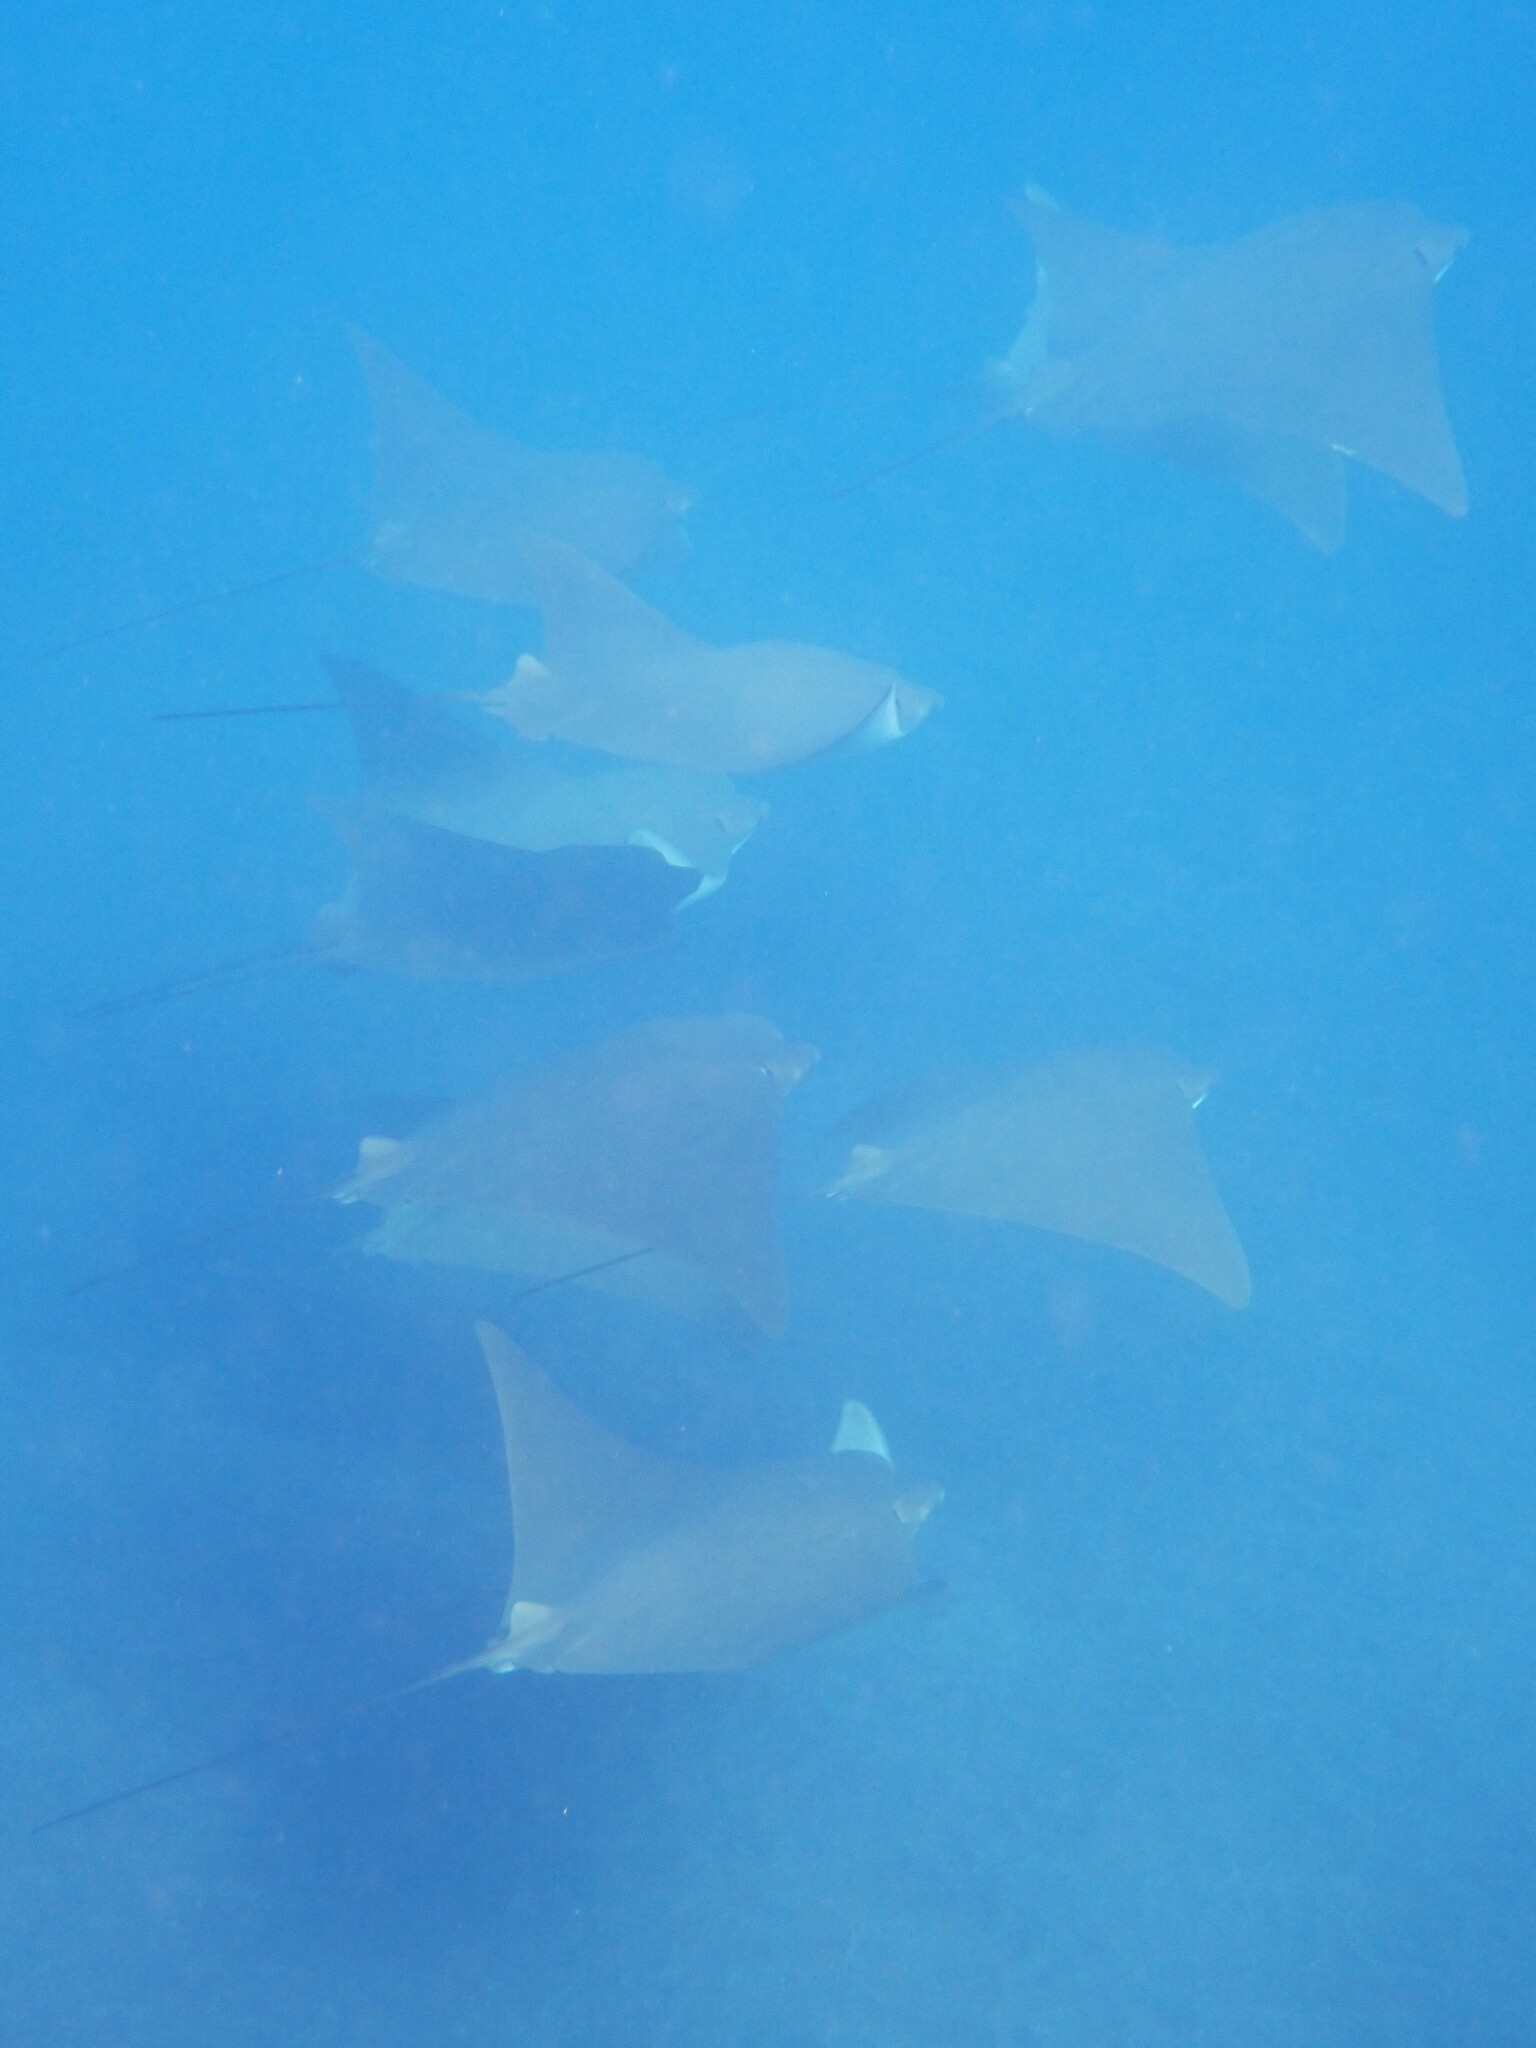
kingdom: Animalia
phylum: Chordata
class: Elasmobranchii
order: Myliobatiformes
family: Myliobatidae
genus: Rhinoptera
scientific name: Rhinoptera steindachneri
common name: Golden cownose ray
